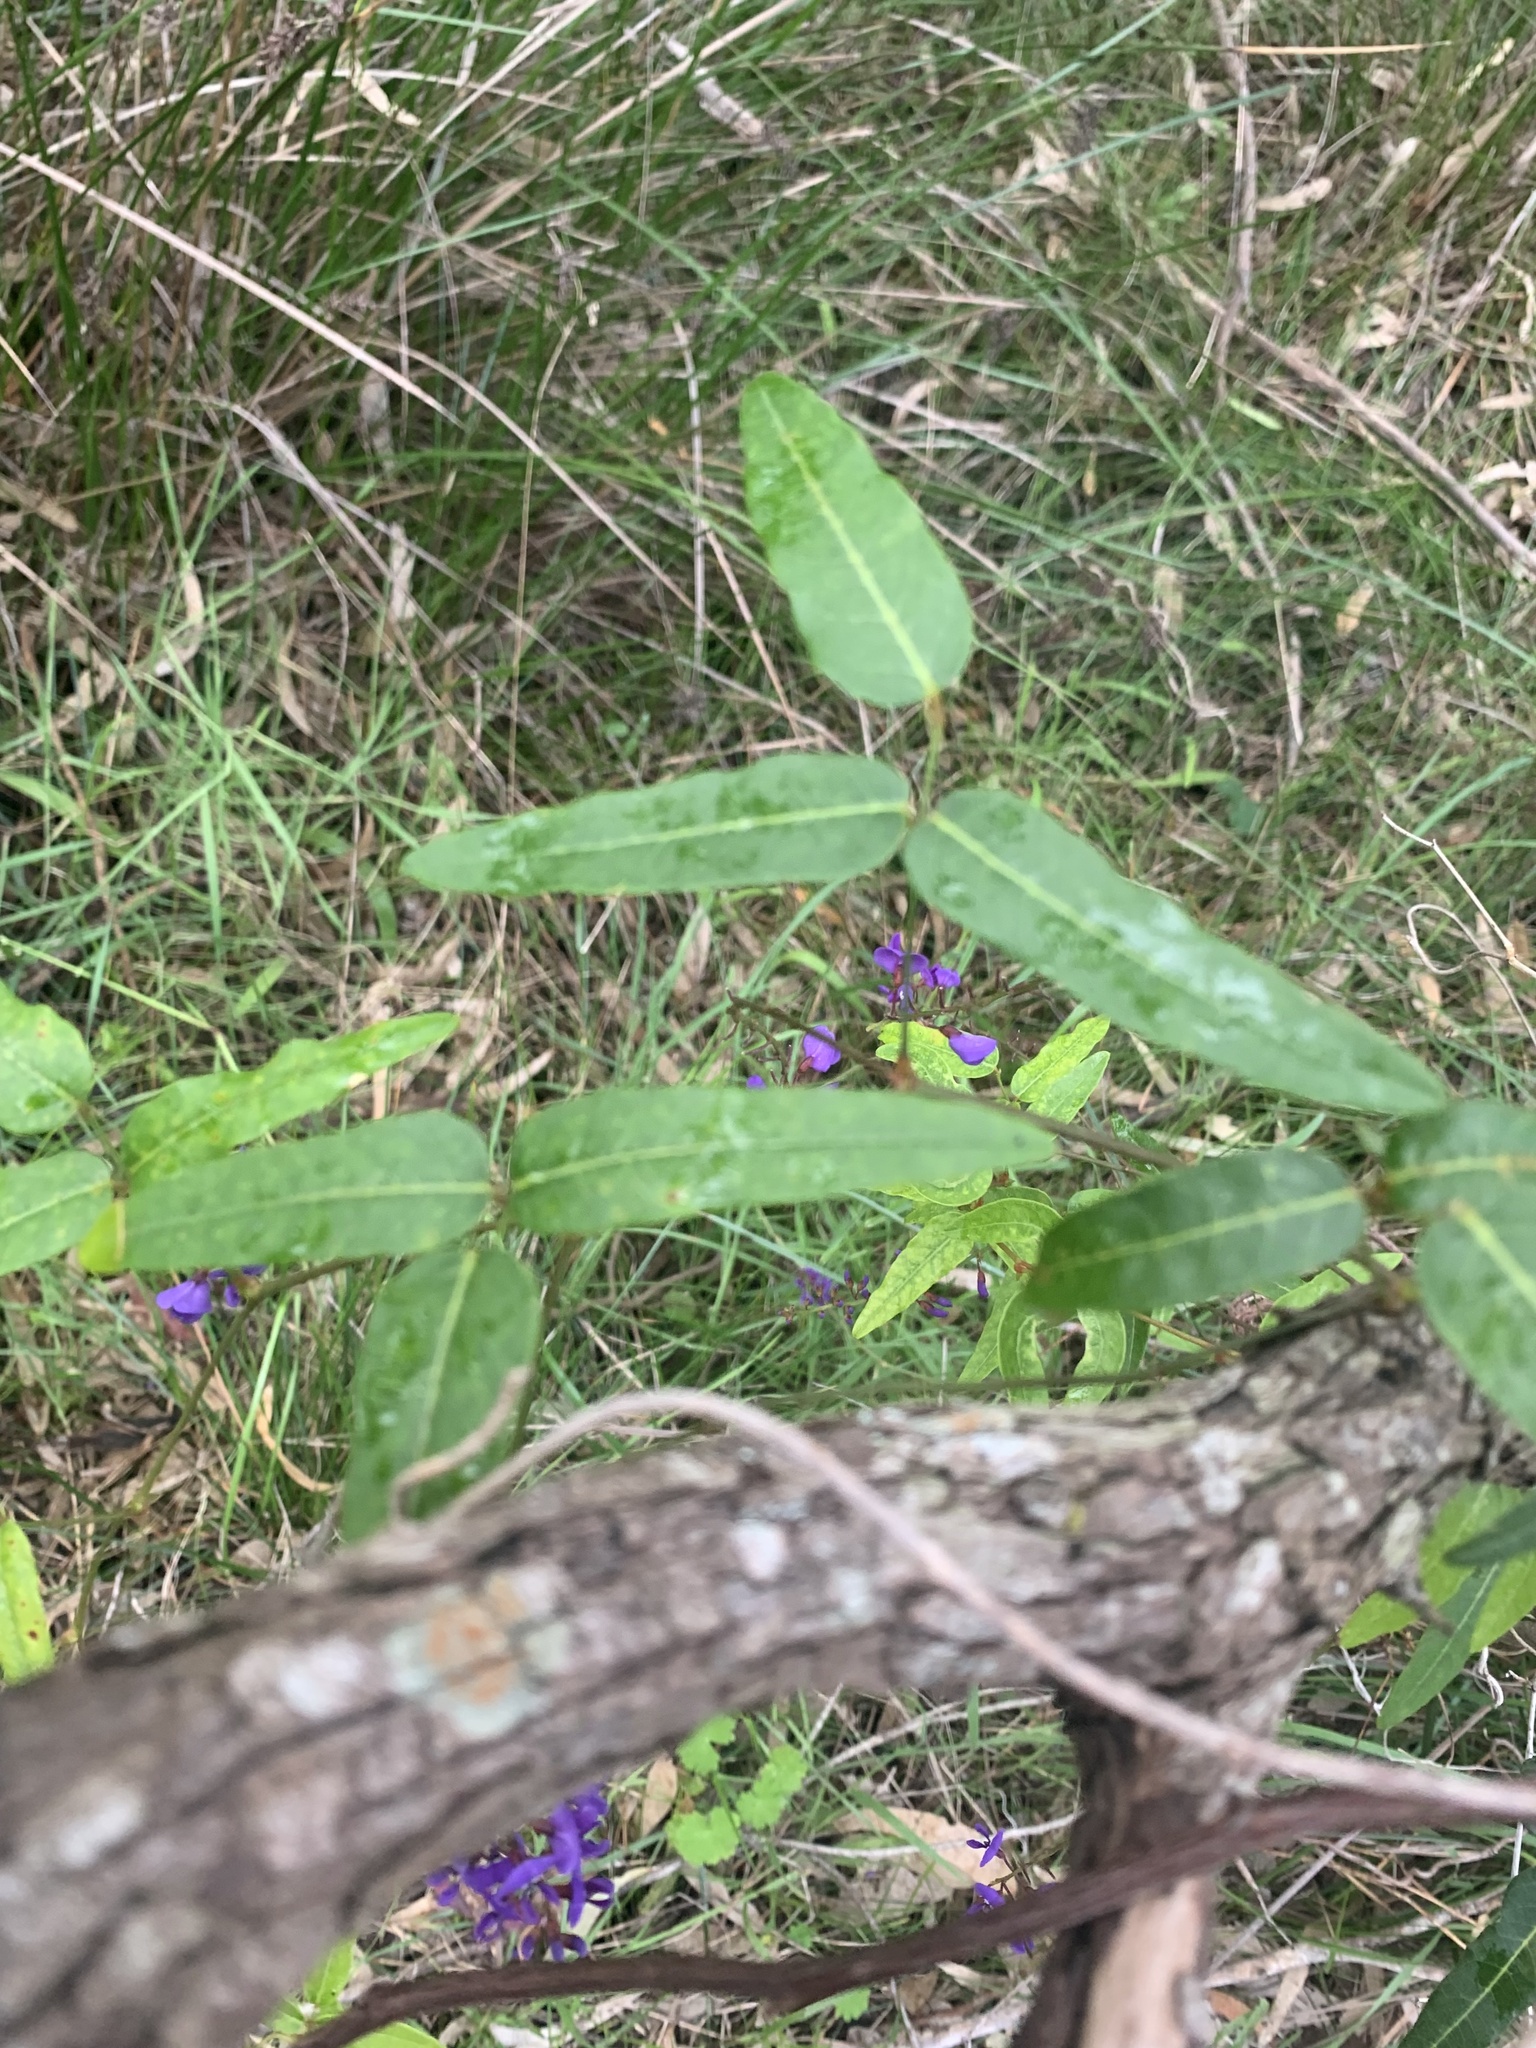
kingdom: Plantae
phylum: Tracheophyta
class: Magnoliopsida
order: Fabales
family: Fabaceae
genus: Hardenbergia
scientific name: Hardenbergia comptoniana
